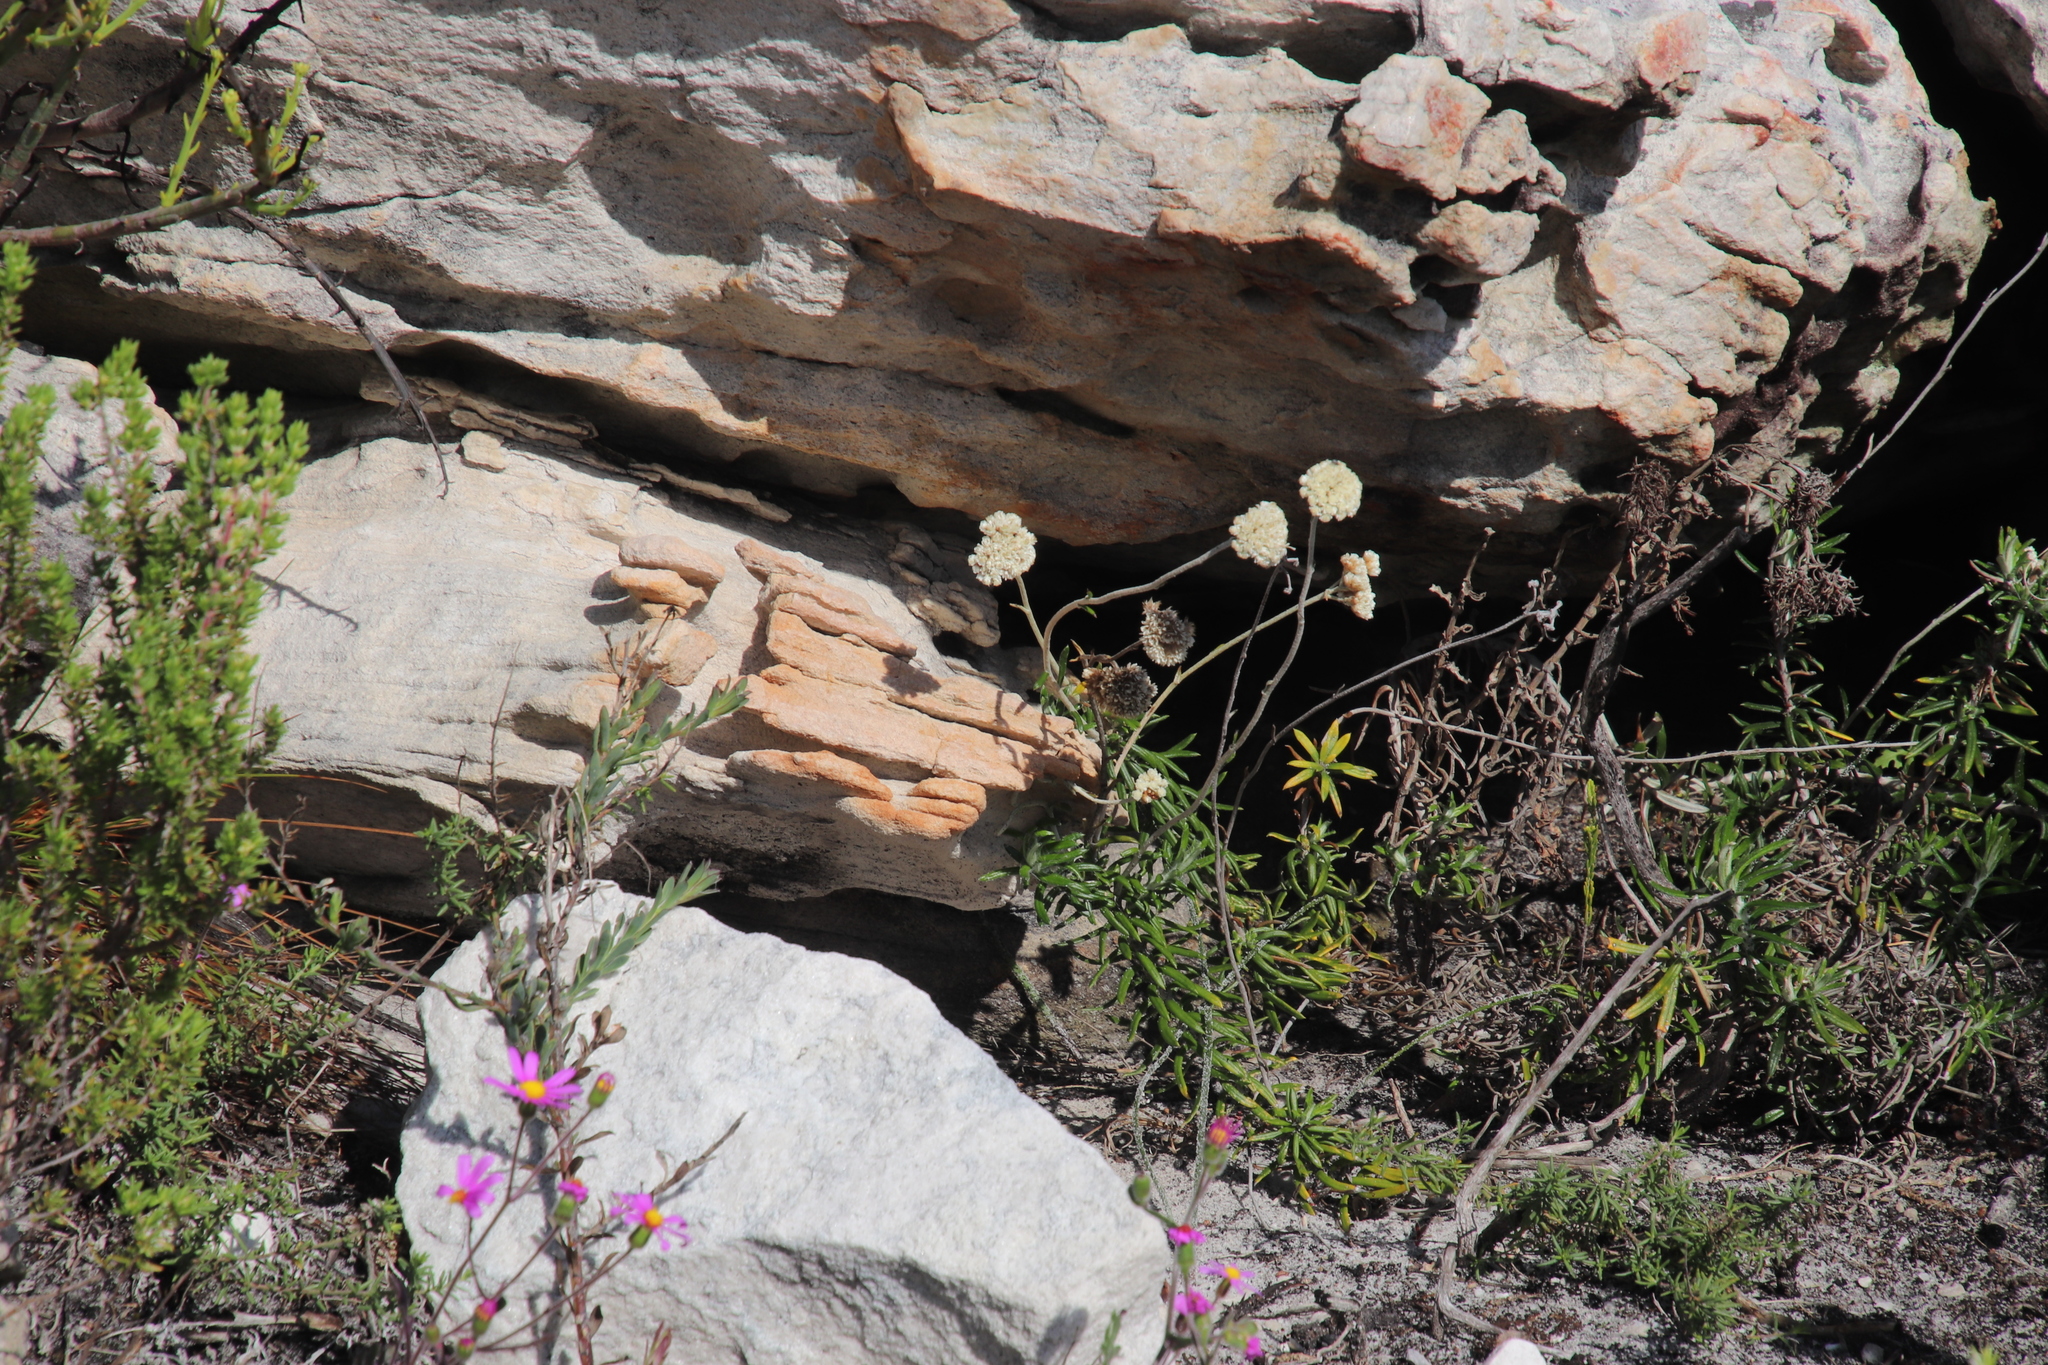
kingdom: Plantae
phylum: Tracheophyta
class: Magnoliopsida
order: Asterales
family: Asteraceae
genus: Anaxeton
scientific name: Anaxeton laeve
